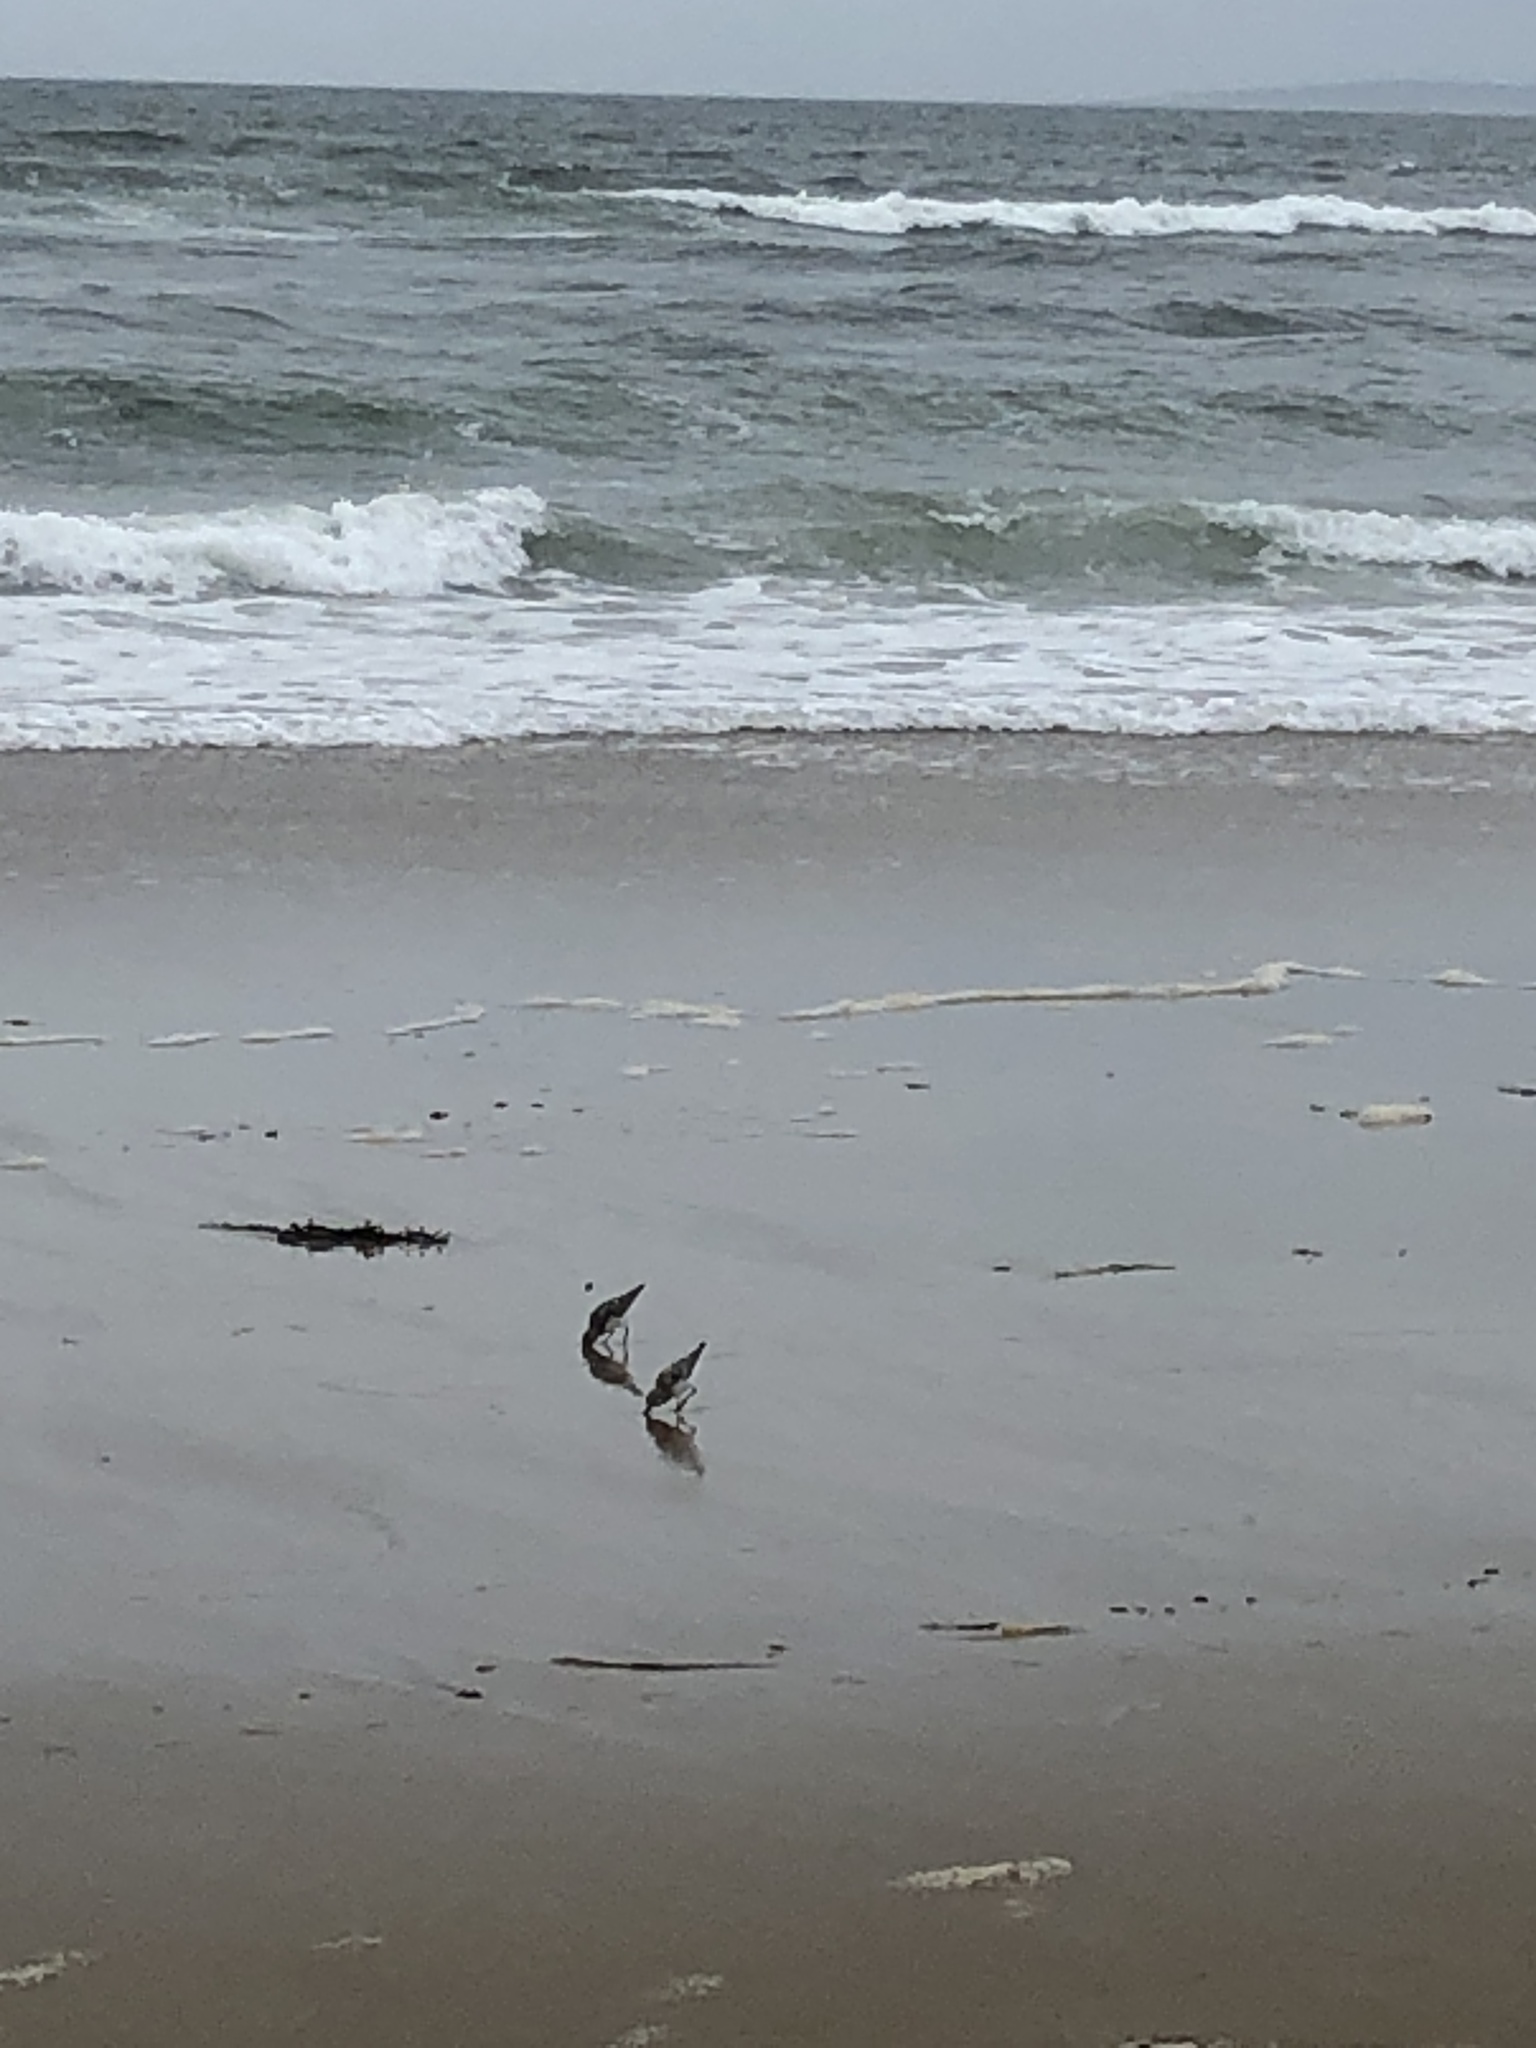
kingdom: Animalia
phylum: Chordata
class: Aves
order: Charadriiformes
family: Scolopacidae
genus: Calidris
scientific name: Calidris alba
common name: Sanderling
